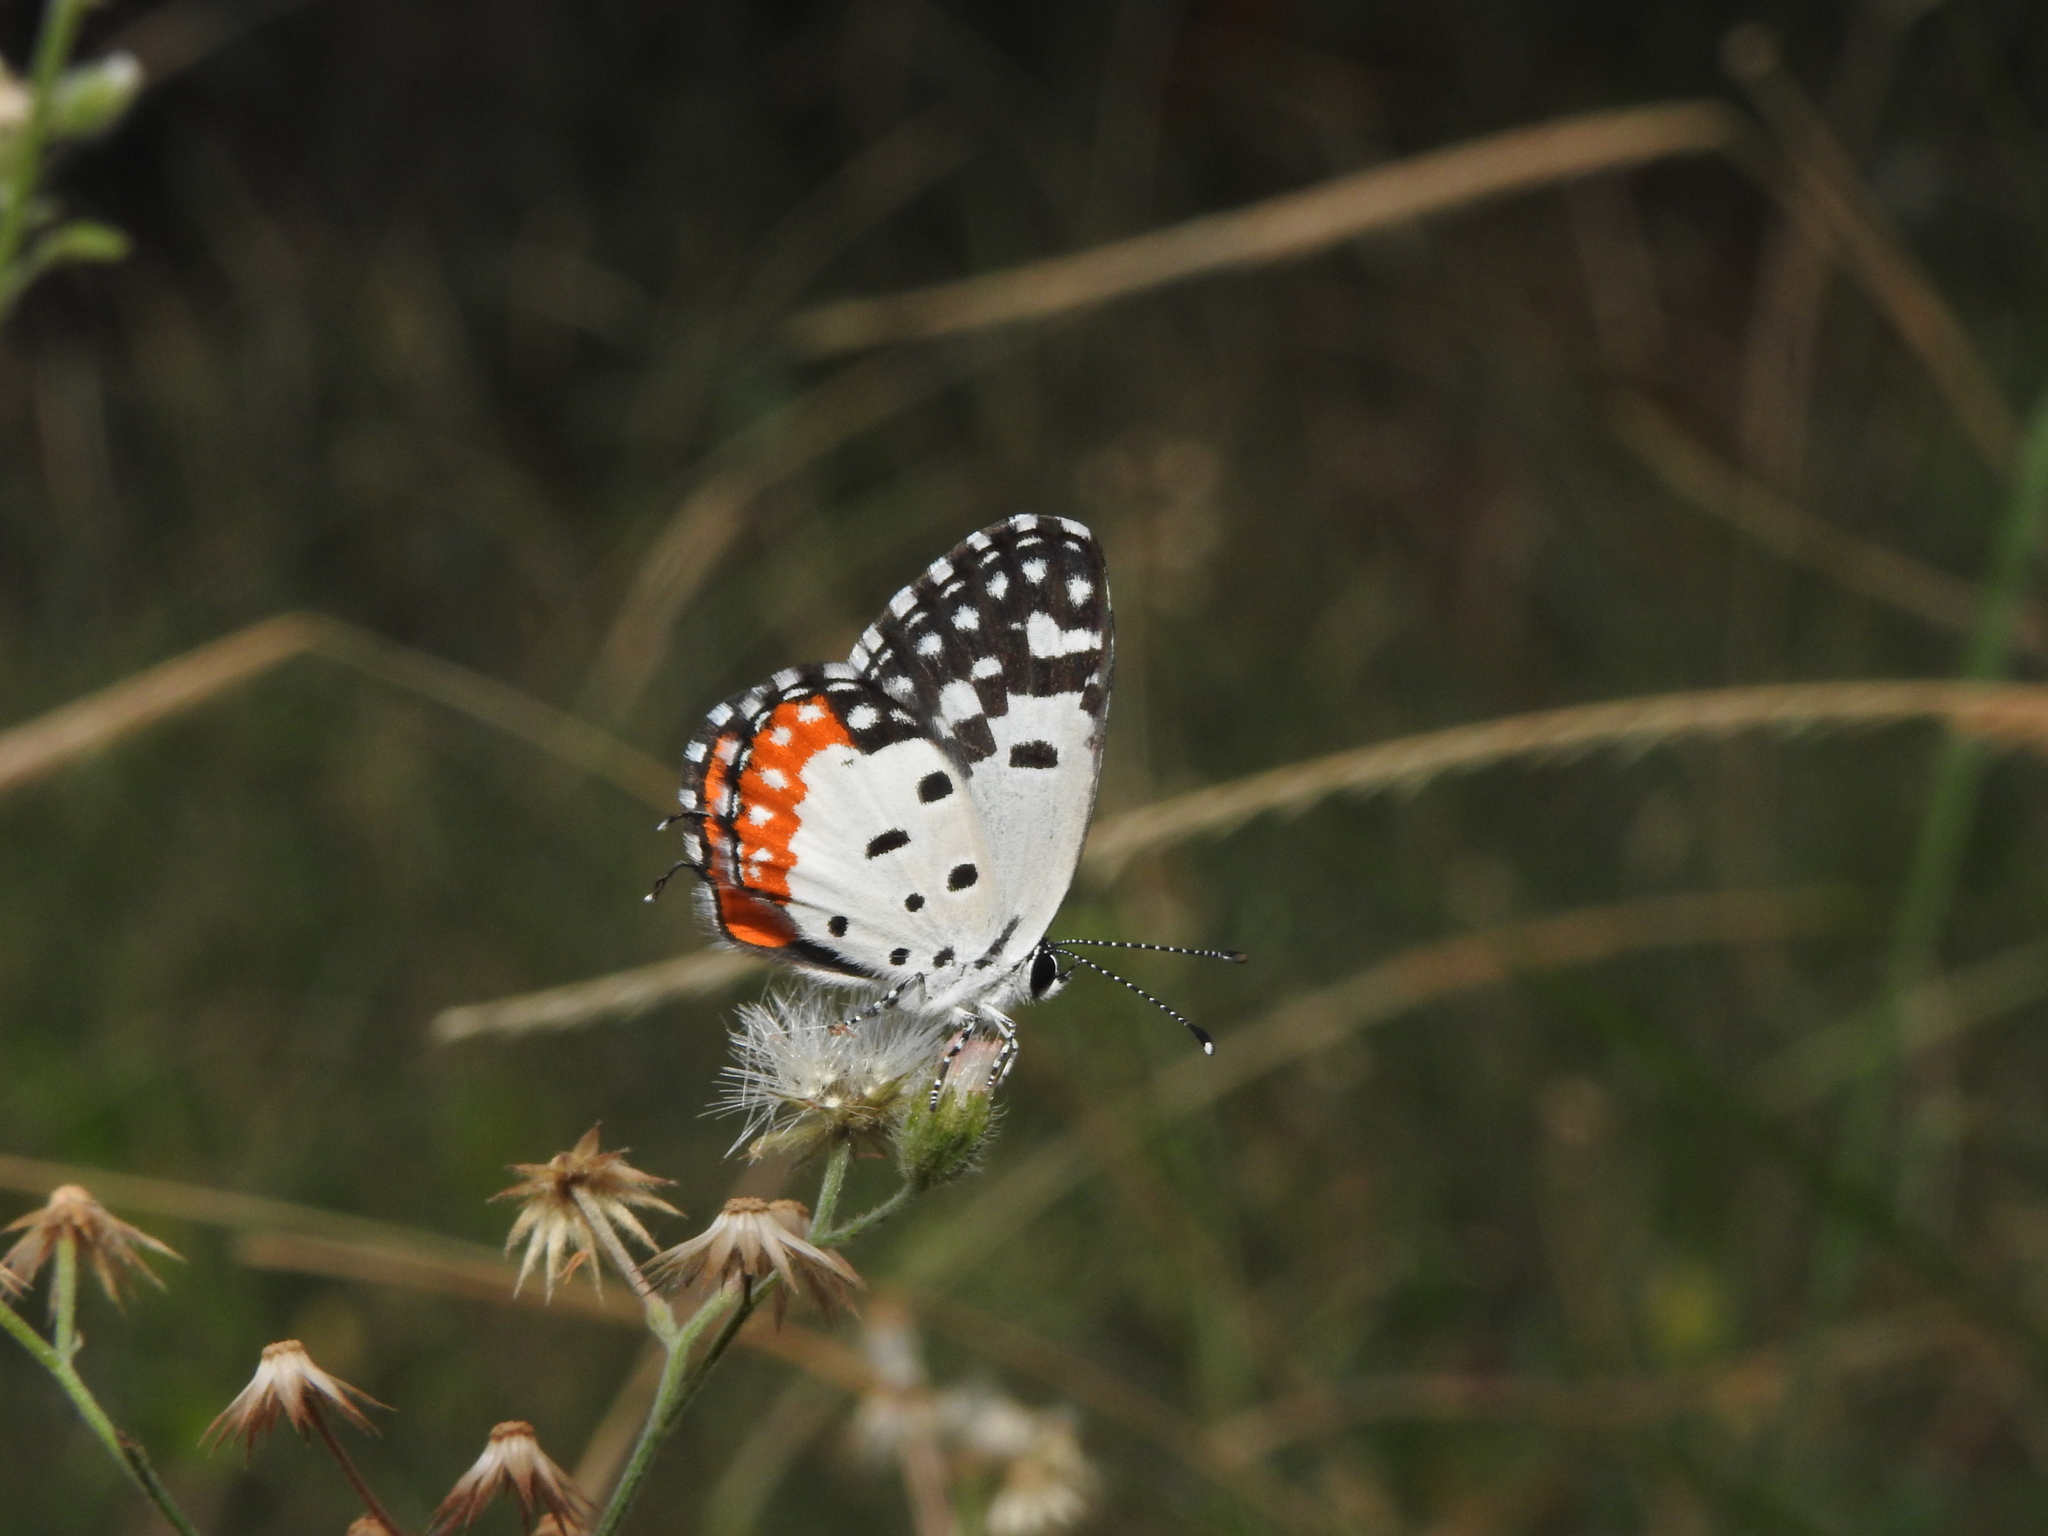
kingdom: Animalia
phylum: Arthropoda
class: Insecta
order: Lepidoptera
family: Lycaenidae
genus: Talicada
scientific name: Talicada nyseus
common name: Red pierrot
